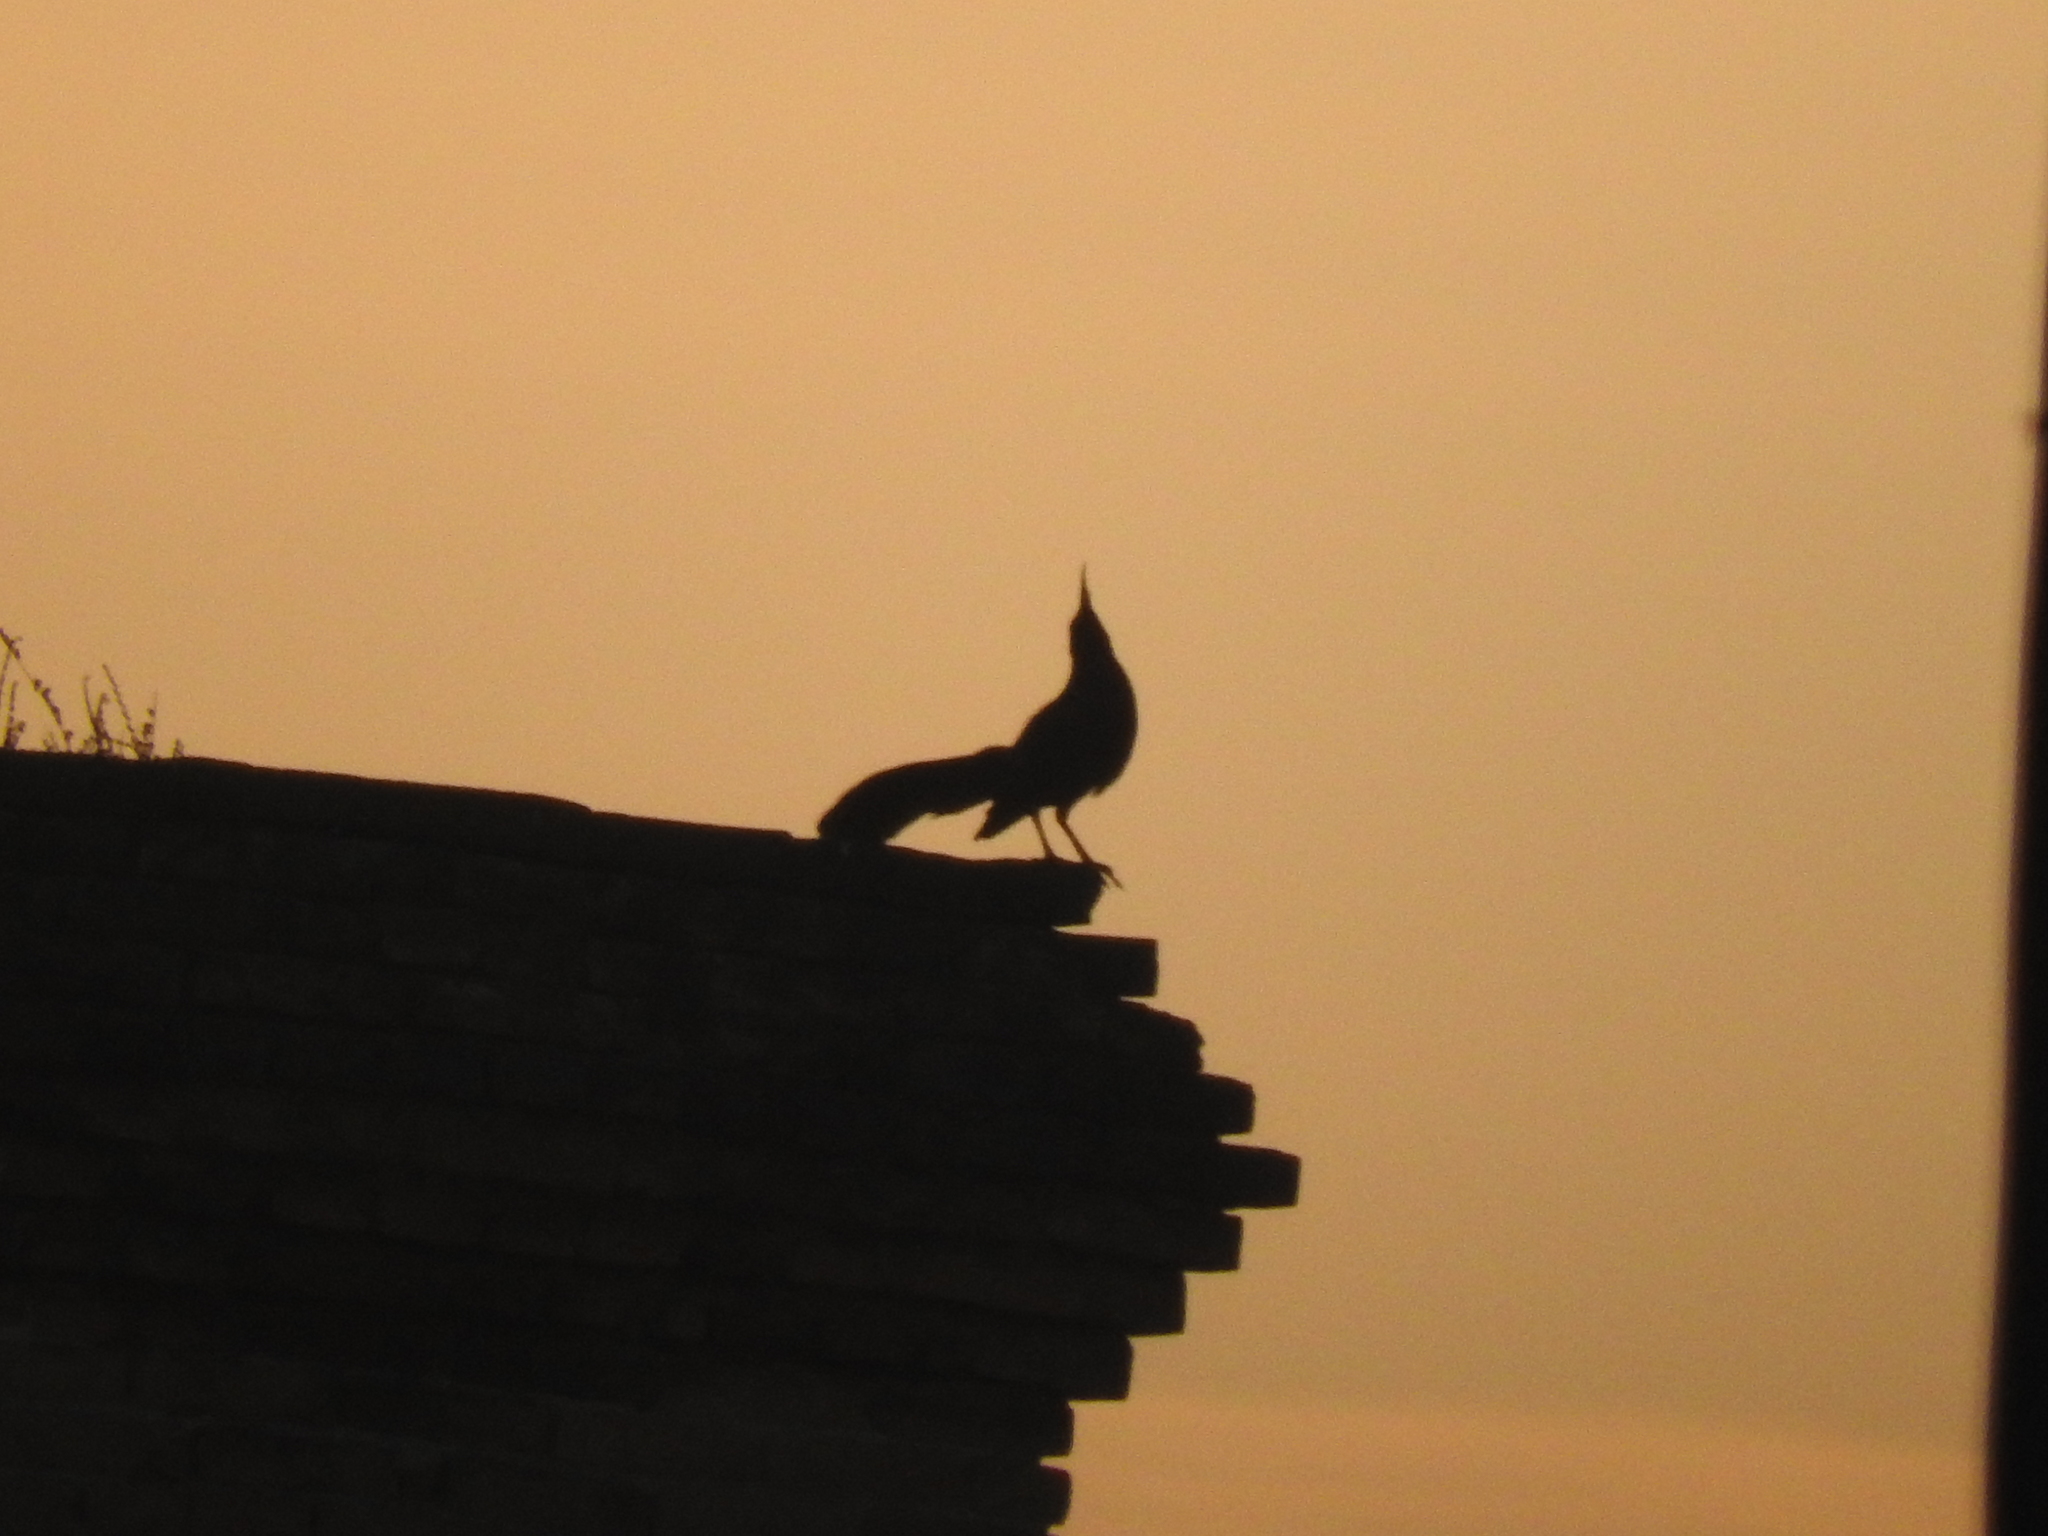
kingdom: Animalia
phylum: Chordata
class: Aves
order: Passeriformes
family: Icteridae
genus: Quiscalus
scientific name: Quiscalus mexicanus
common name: Great-tailed grackle
